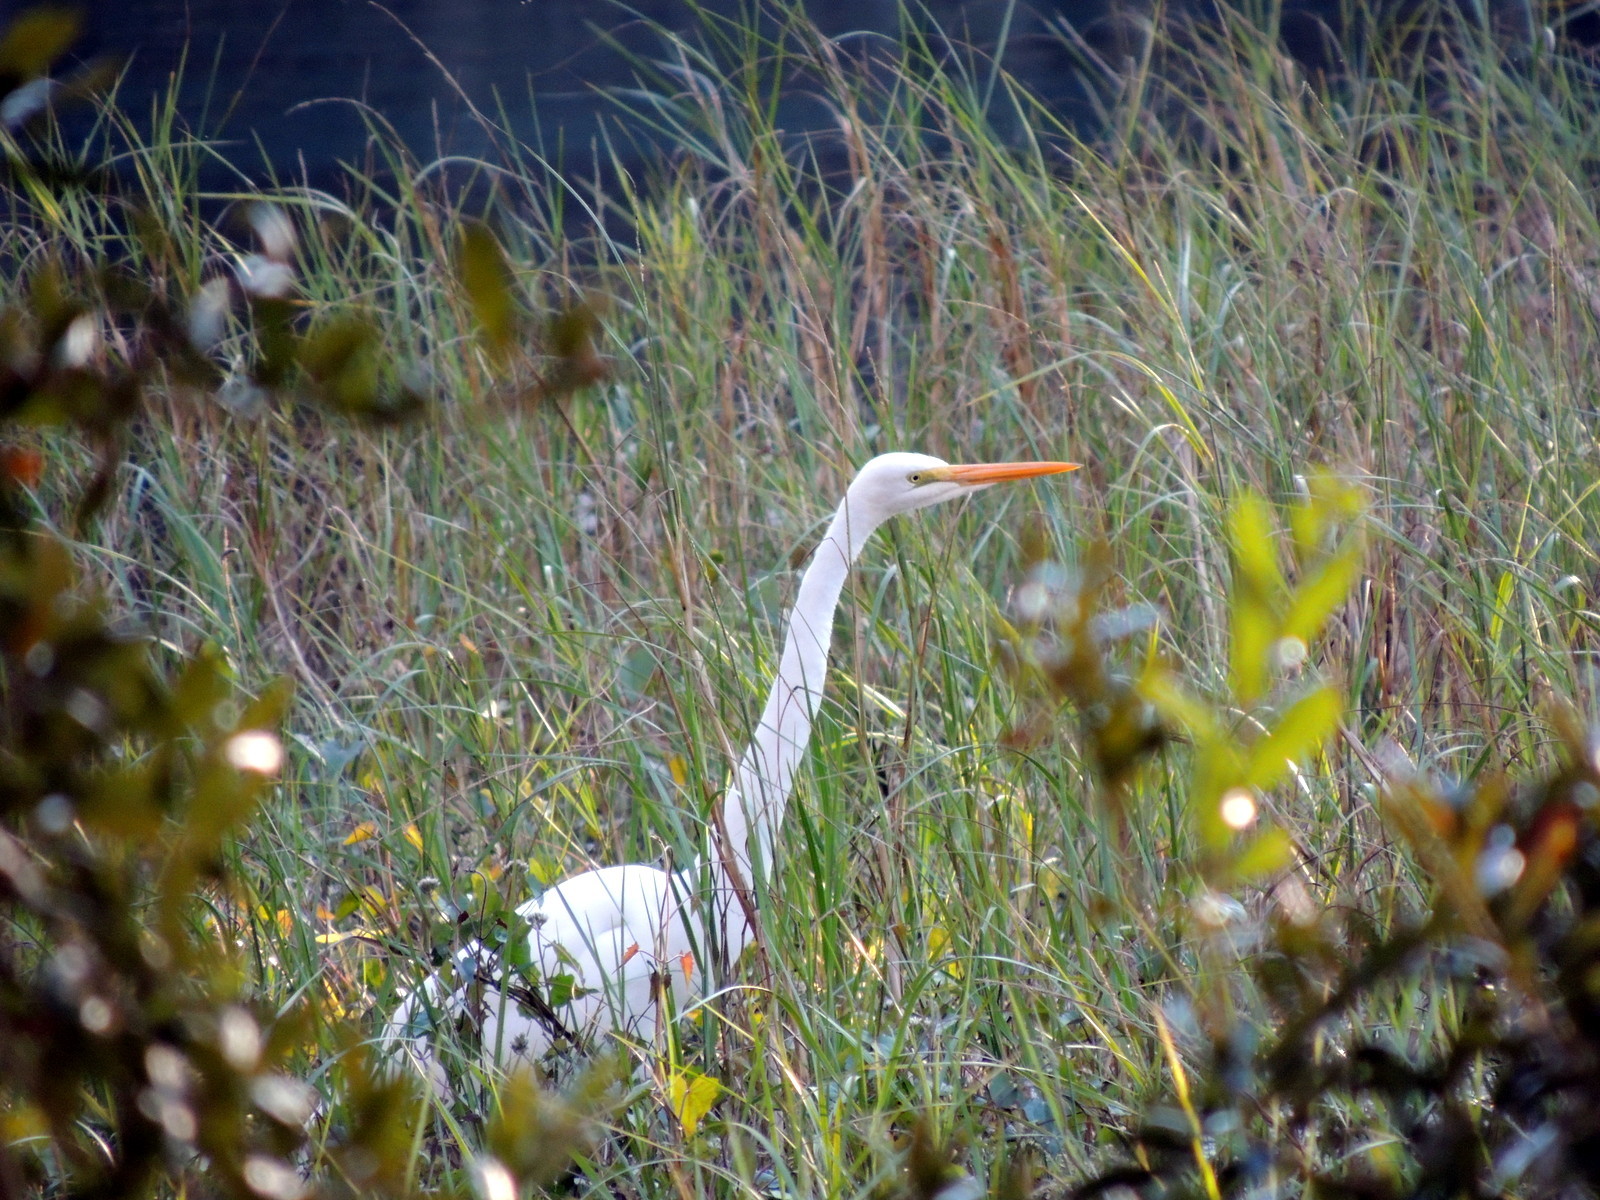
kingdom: Animalia
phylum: Chordata
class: Aves
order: Pelecaniformes
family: Ardeidae
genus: Ardea
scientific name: Ardea alba
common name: Great egret
